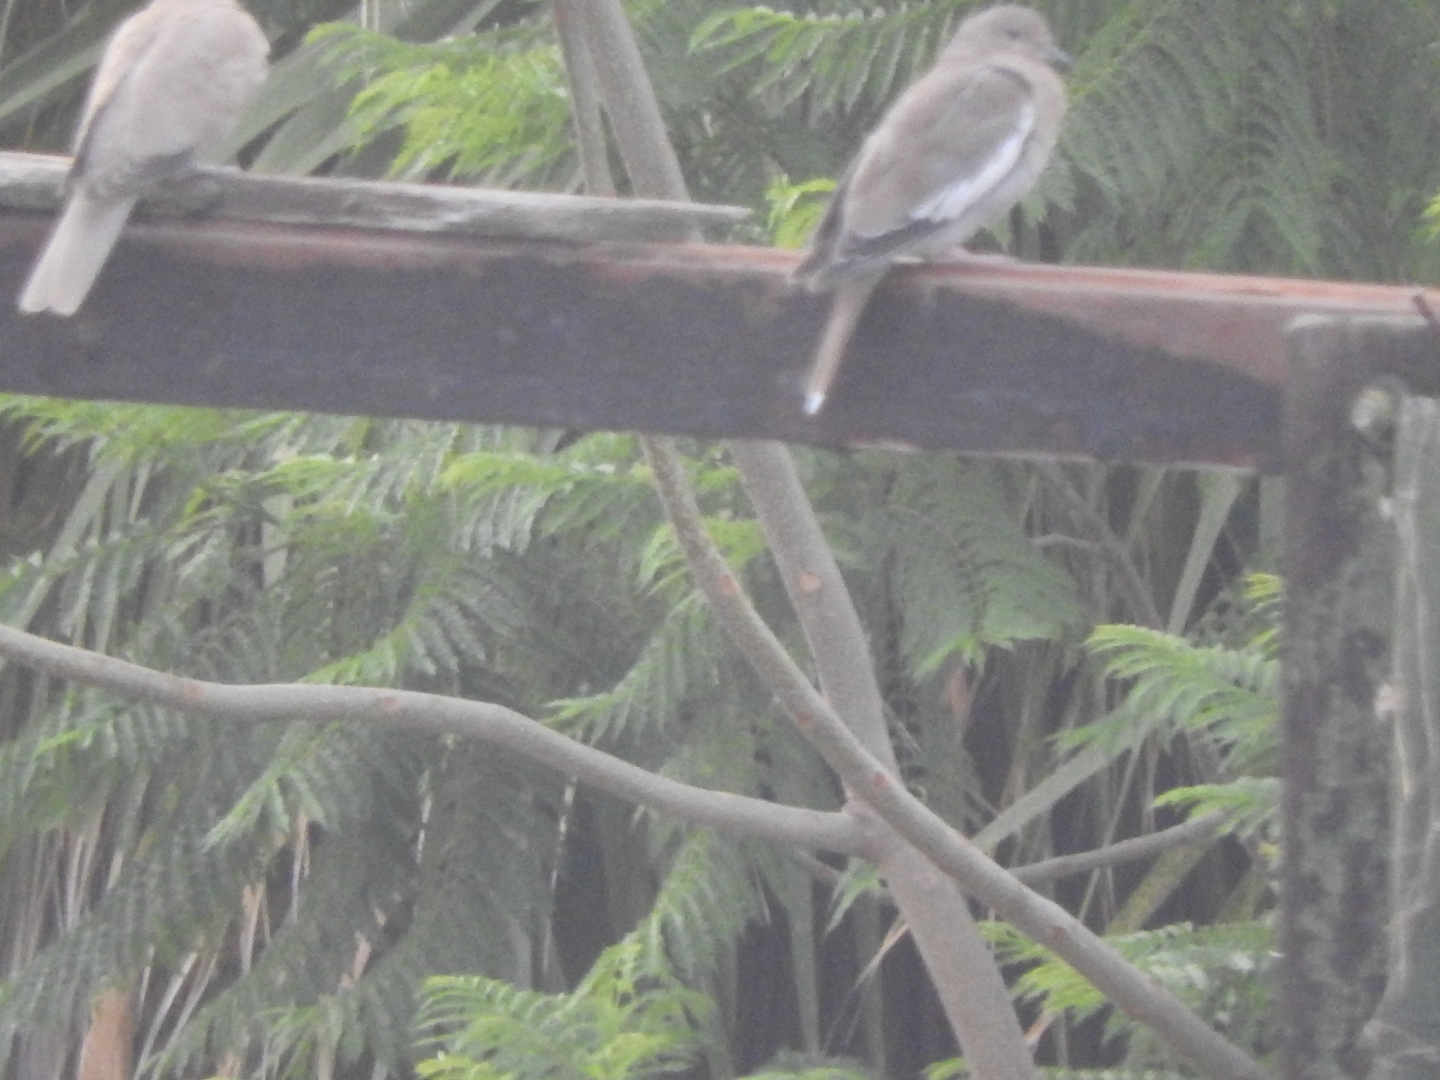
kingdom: Animalia
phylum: Chordata
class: Aves
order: Columbiformes
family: Columbidae
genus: Zenaida
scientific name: Zenaida asiatica
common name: White-winged dove
